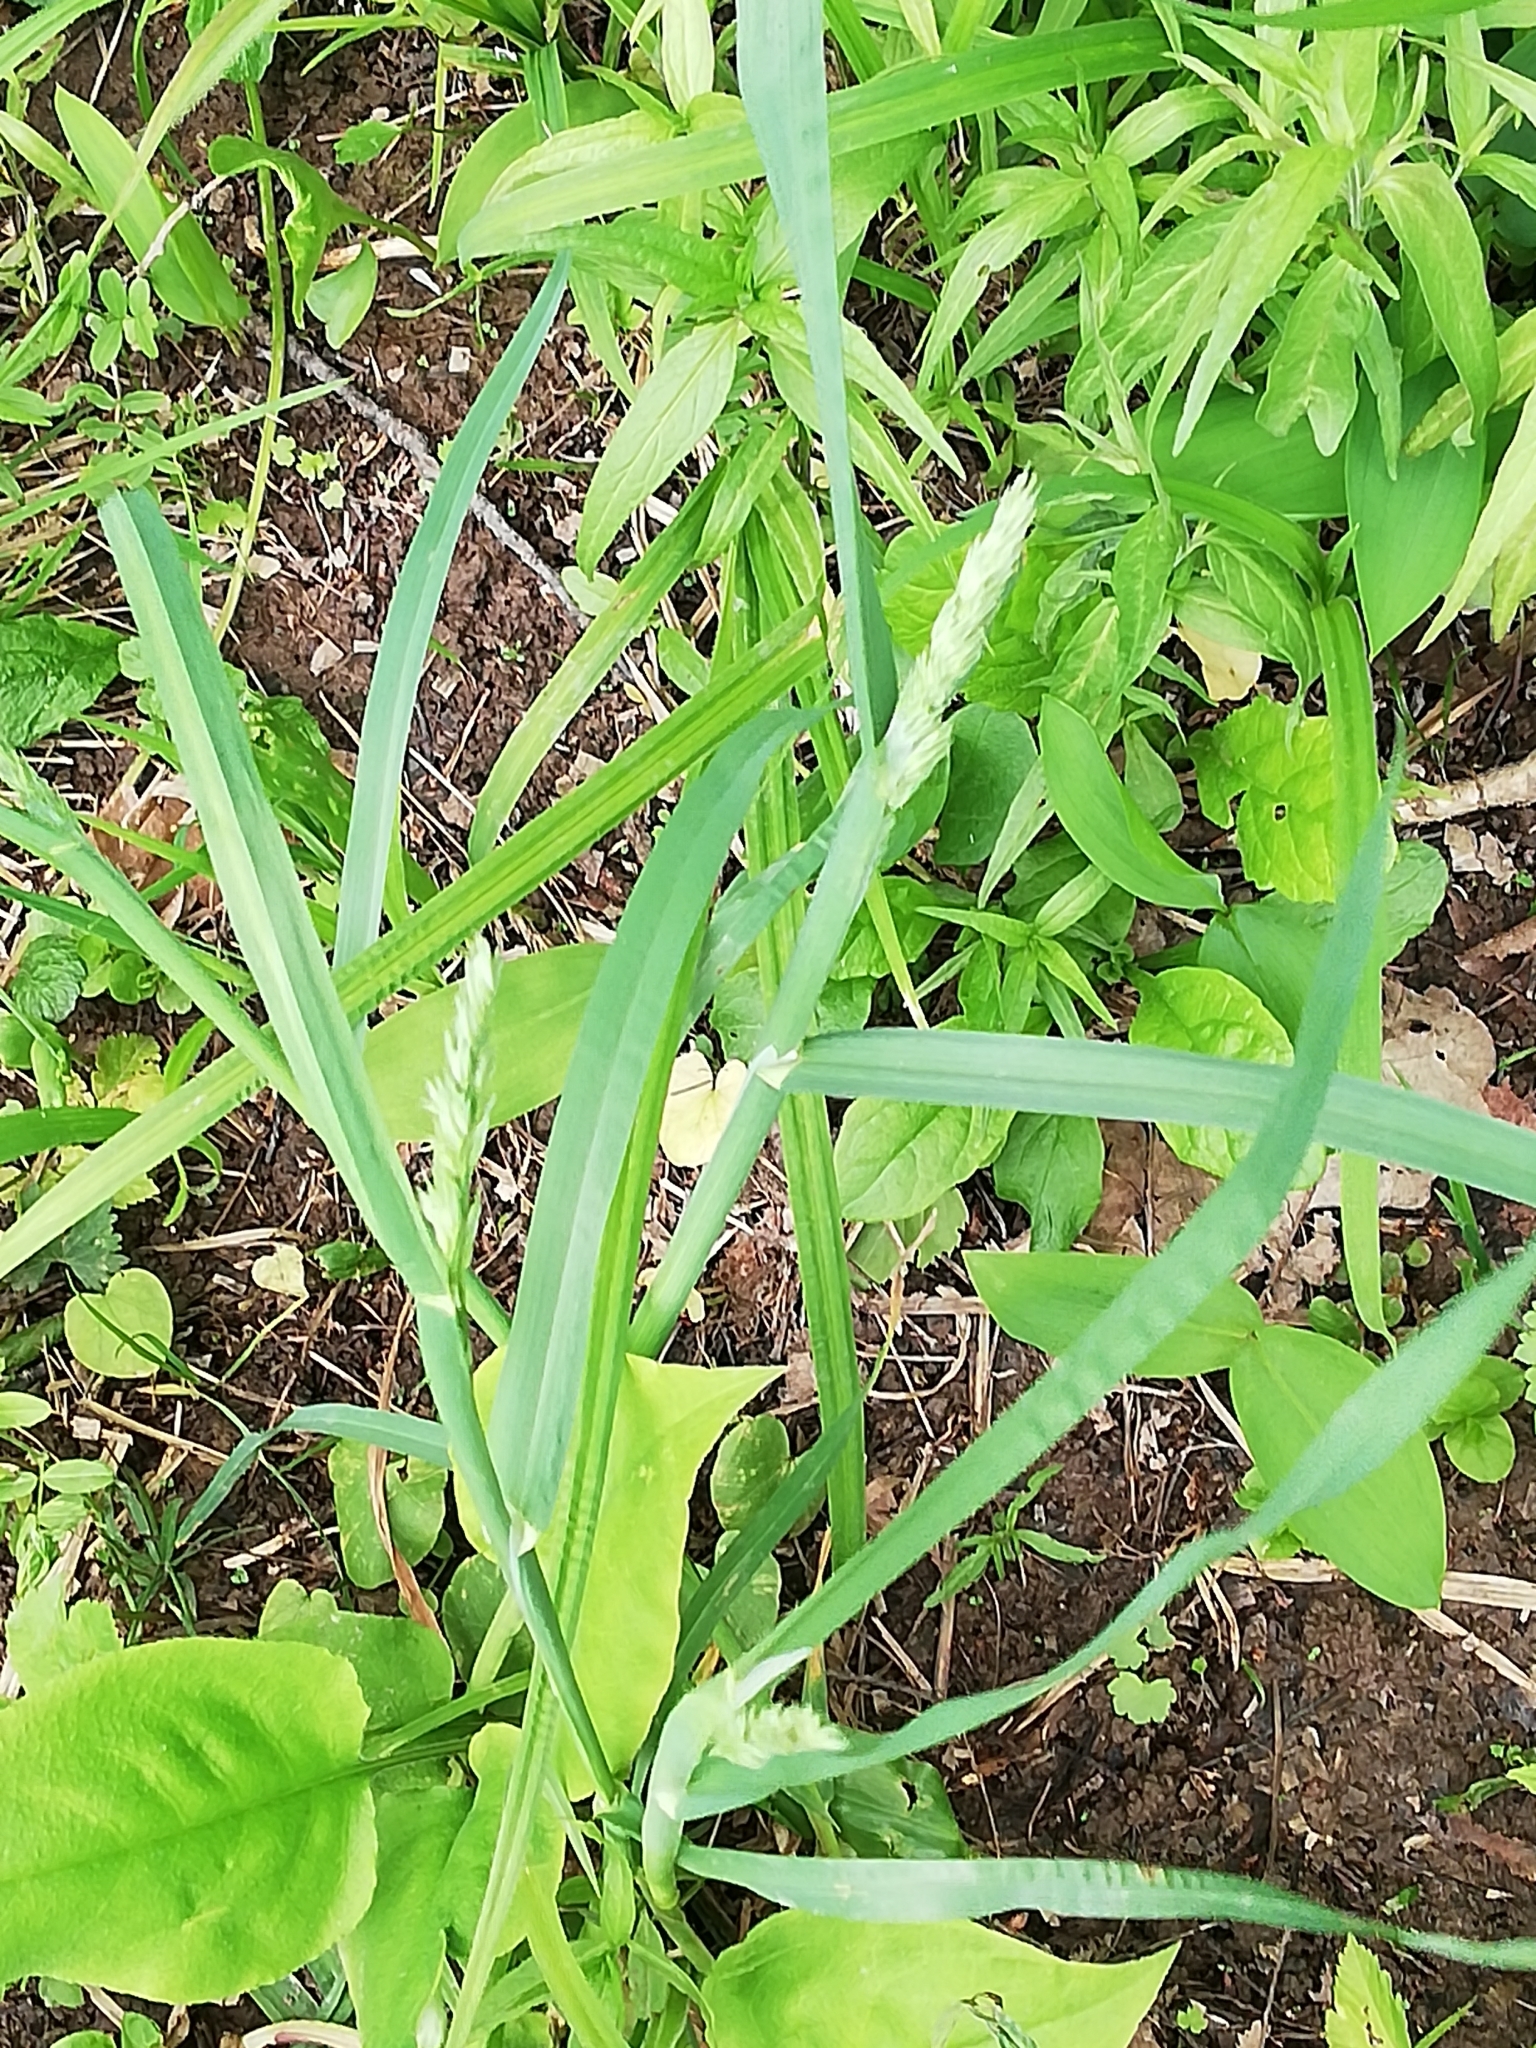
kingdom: Plantae
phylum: Tracheophyta
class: Liliopsida
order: Poales
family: Poaceae
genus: Dactylis
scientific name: Dactylis glomerata
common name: Orchardgrass
